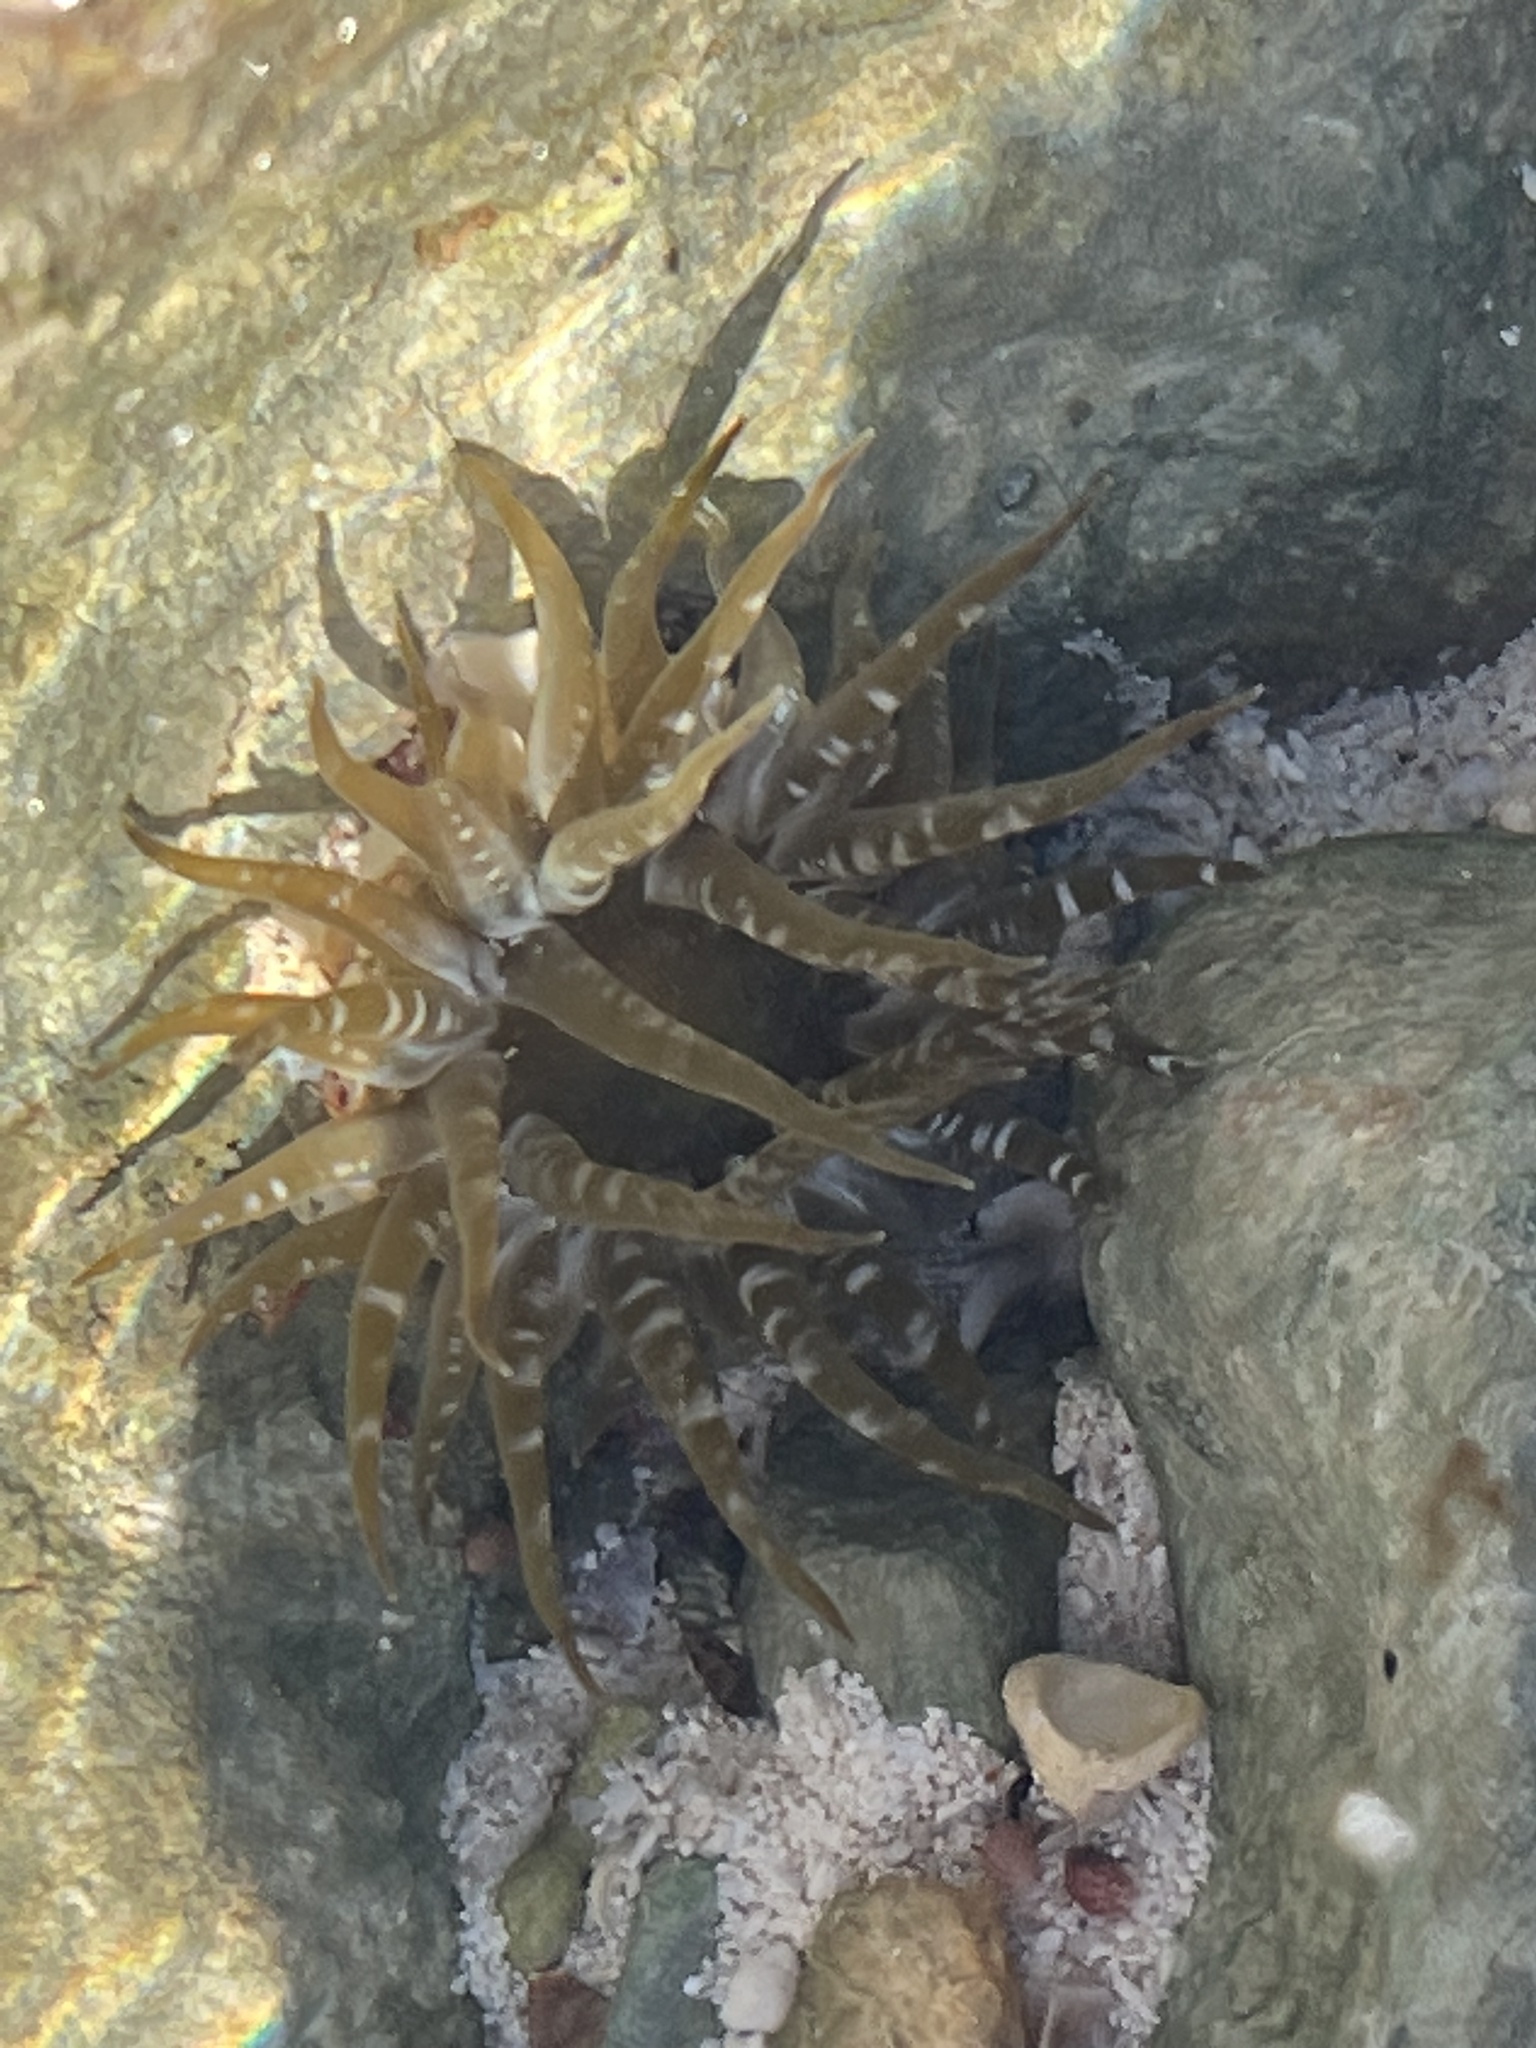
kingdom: Animalia
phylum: Cnidaria
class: Anthozoa
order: Actiniaria
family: Actiniidae
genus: Isoaulactinia
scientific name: Isoaulactinia stelloides
